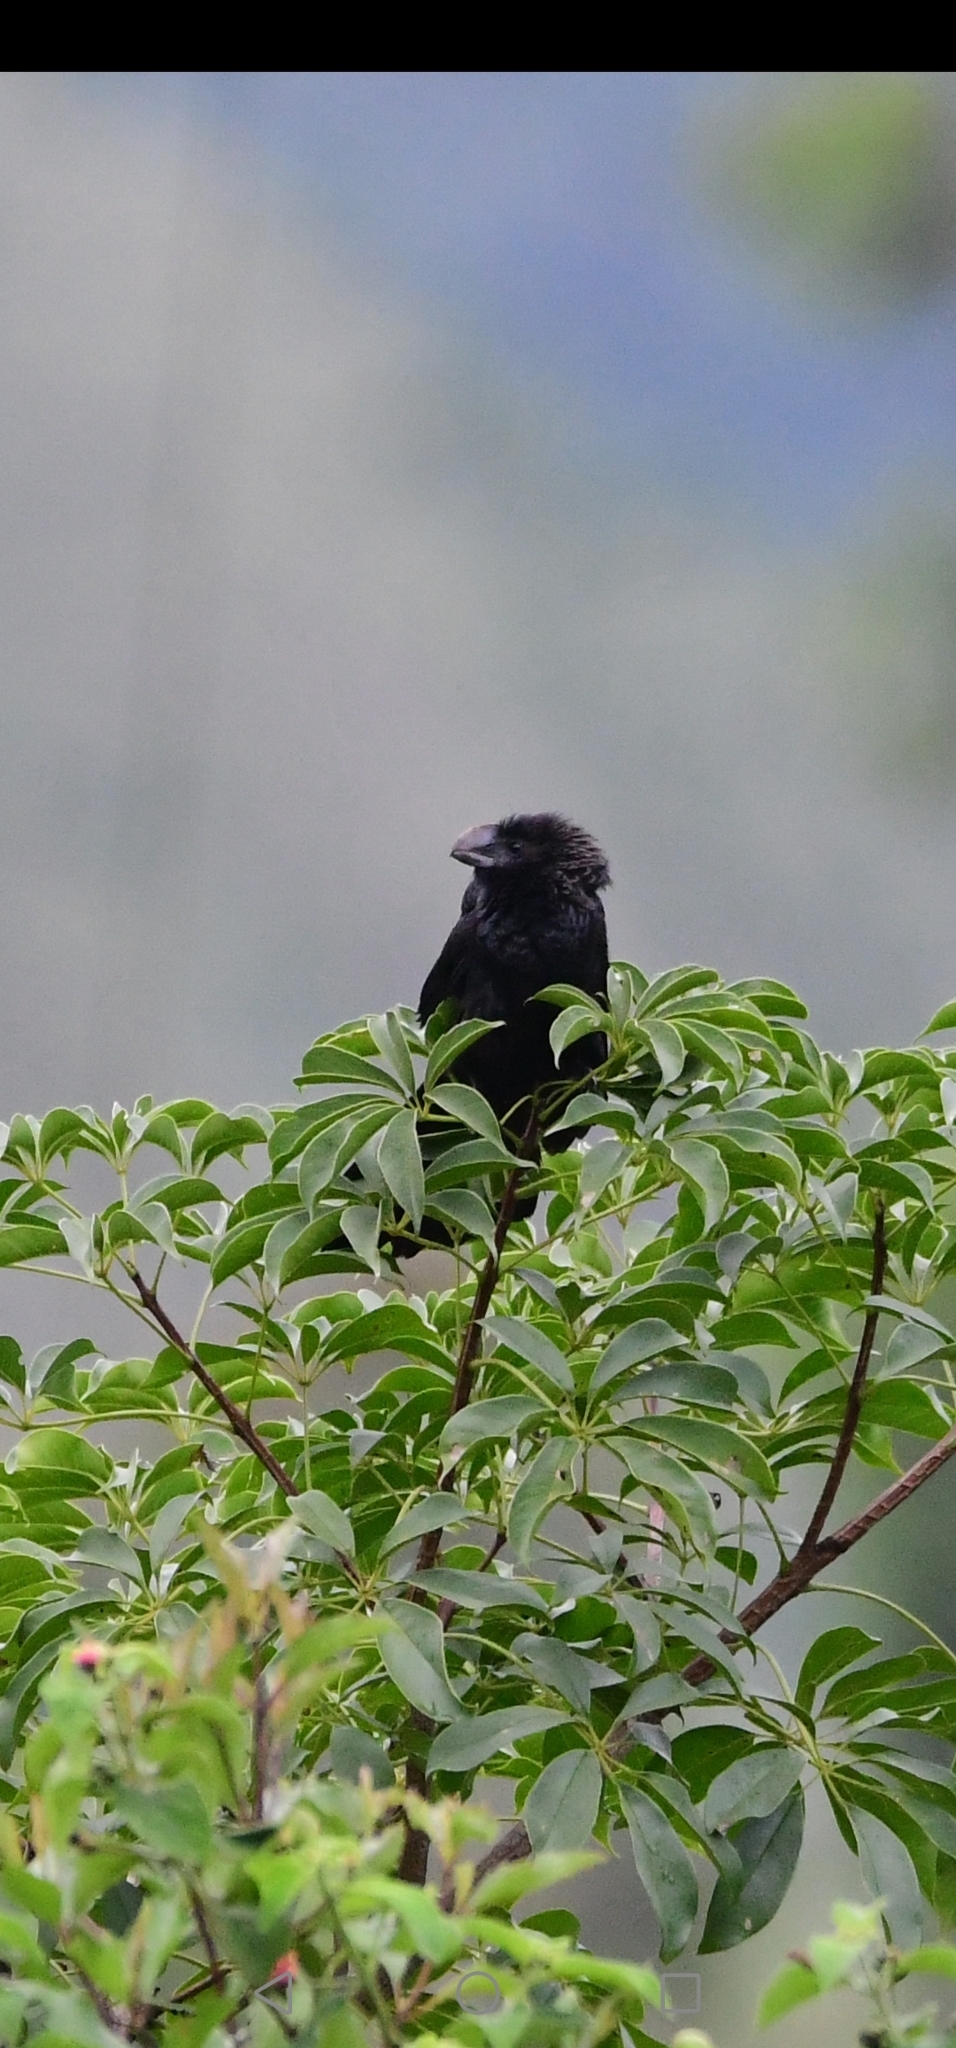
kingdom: Animalia
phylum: Chordata
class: Aves
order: Cuculiformes
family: Cuculidae
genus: Crotophaga
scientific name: Crotophaga ani
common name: Smooth-billed ani
